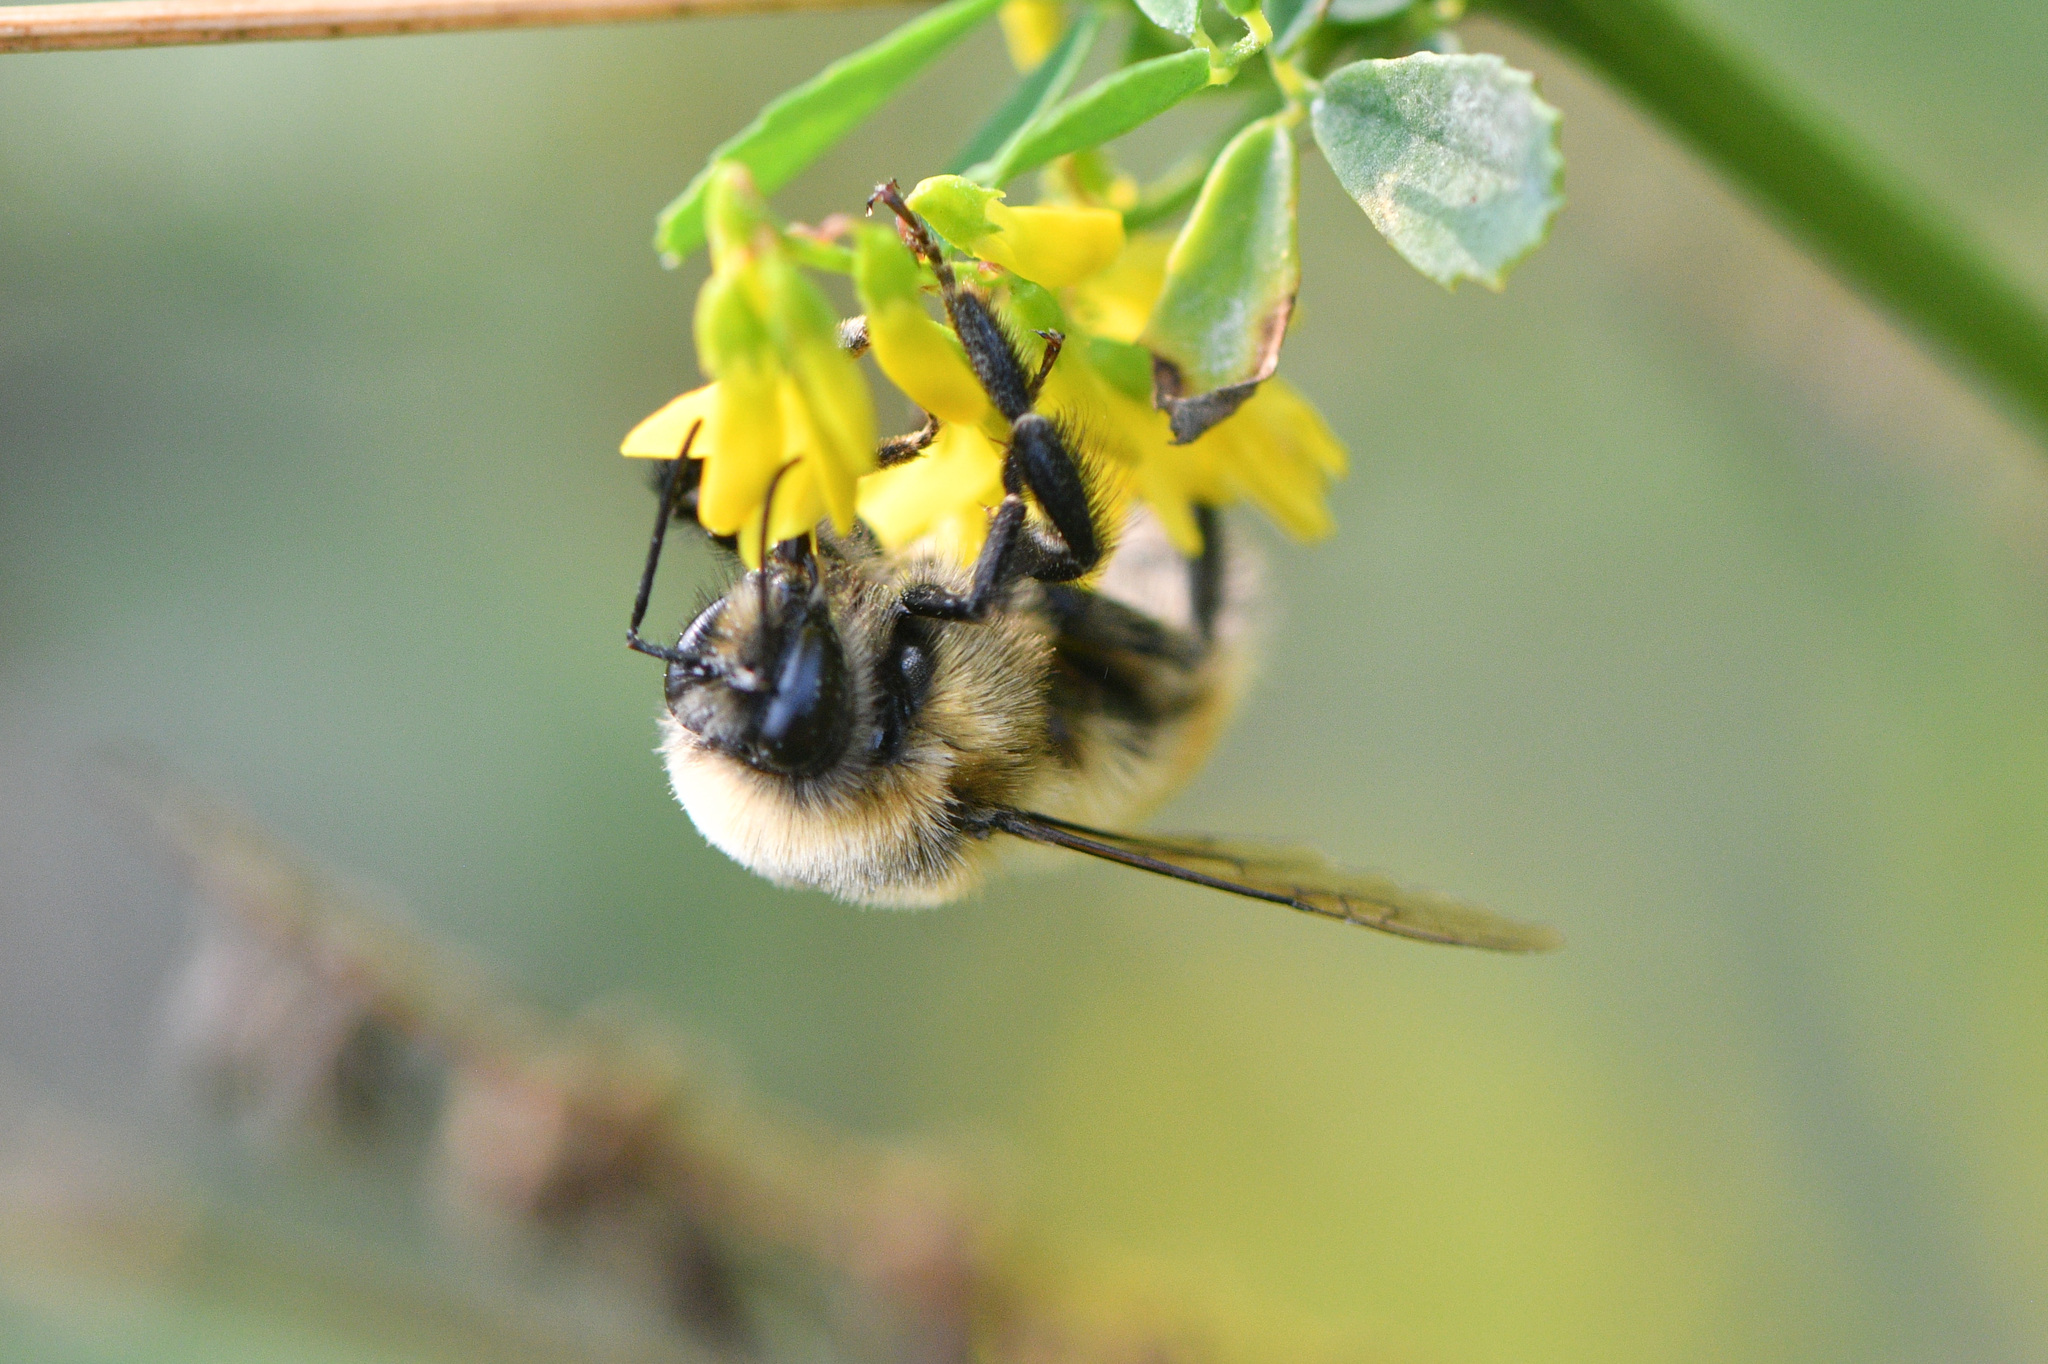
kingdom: Animalia
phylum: Arthropoda
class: Insecta
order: Hymenoptera
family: Apidae
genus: Bombus
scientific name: Bombus rufocinctus
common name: Red-belted bumble bee
